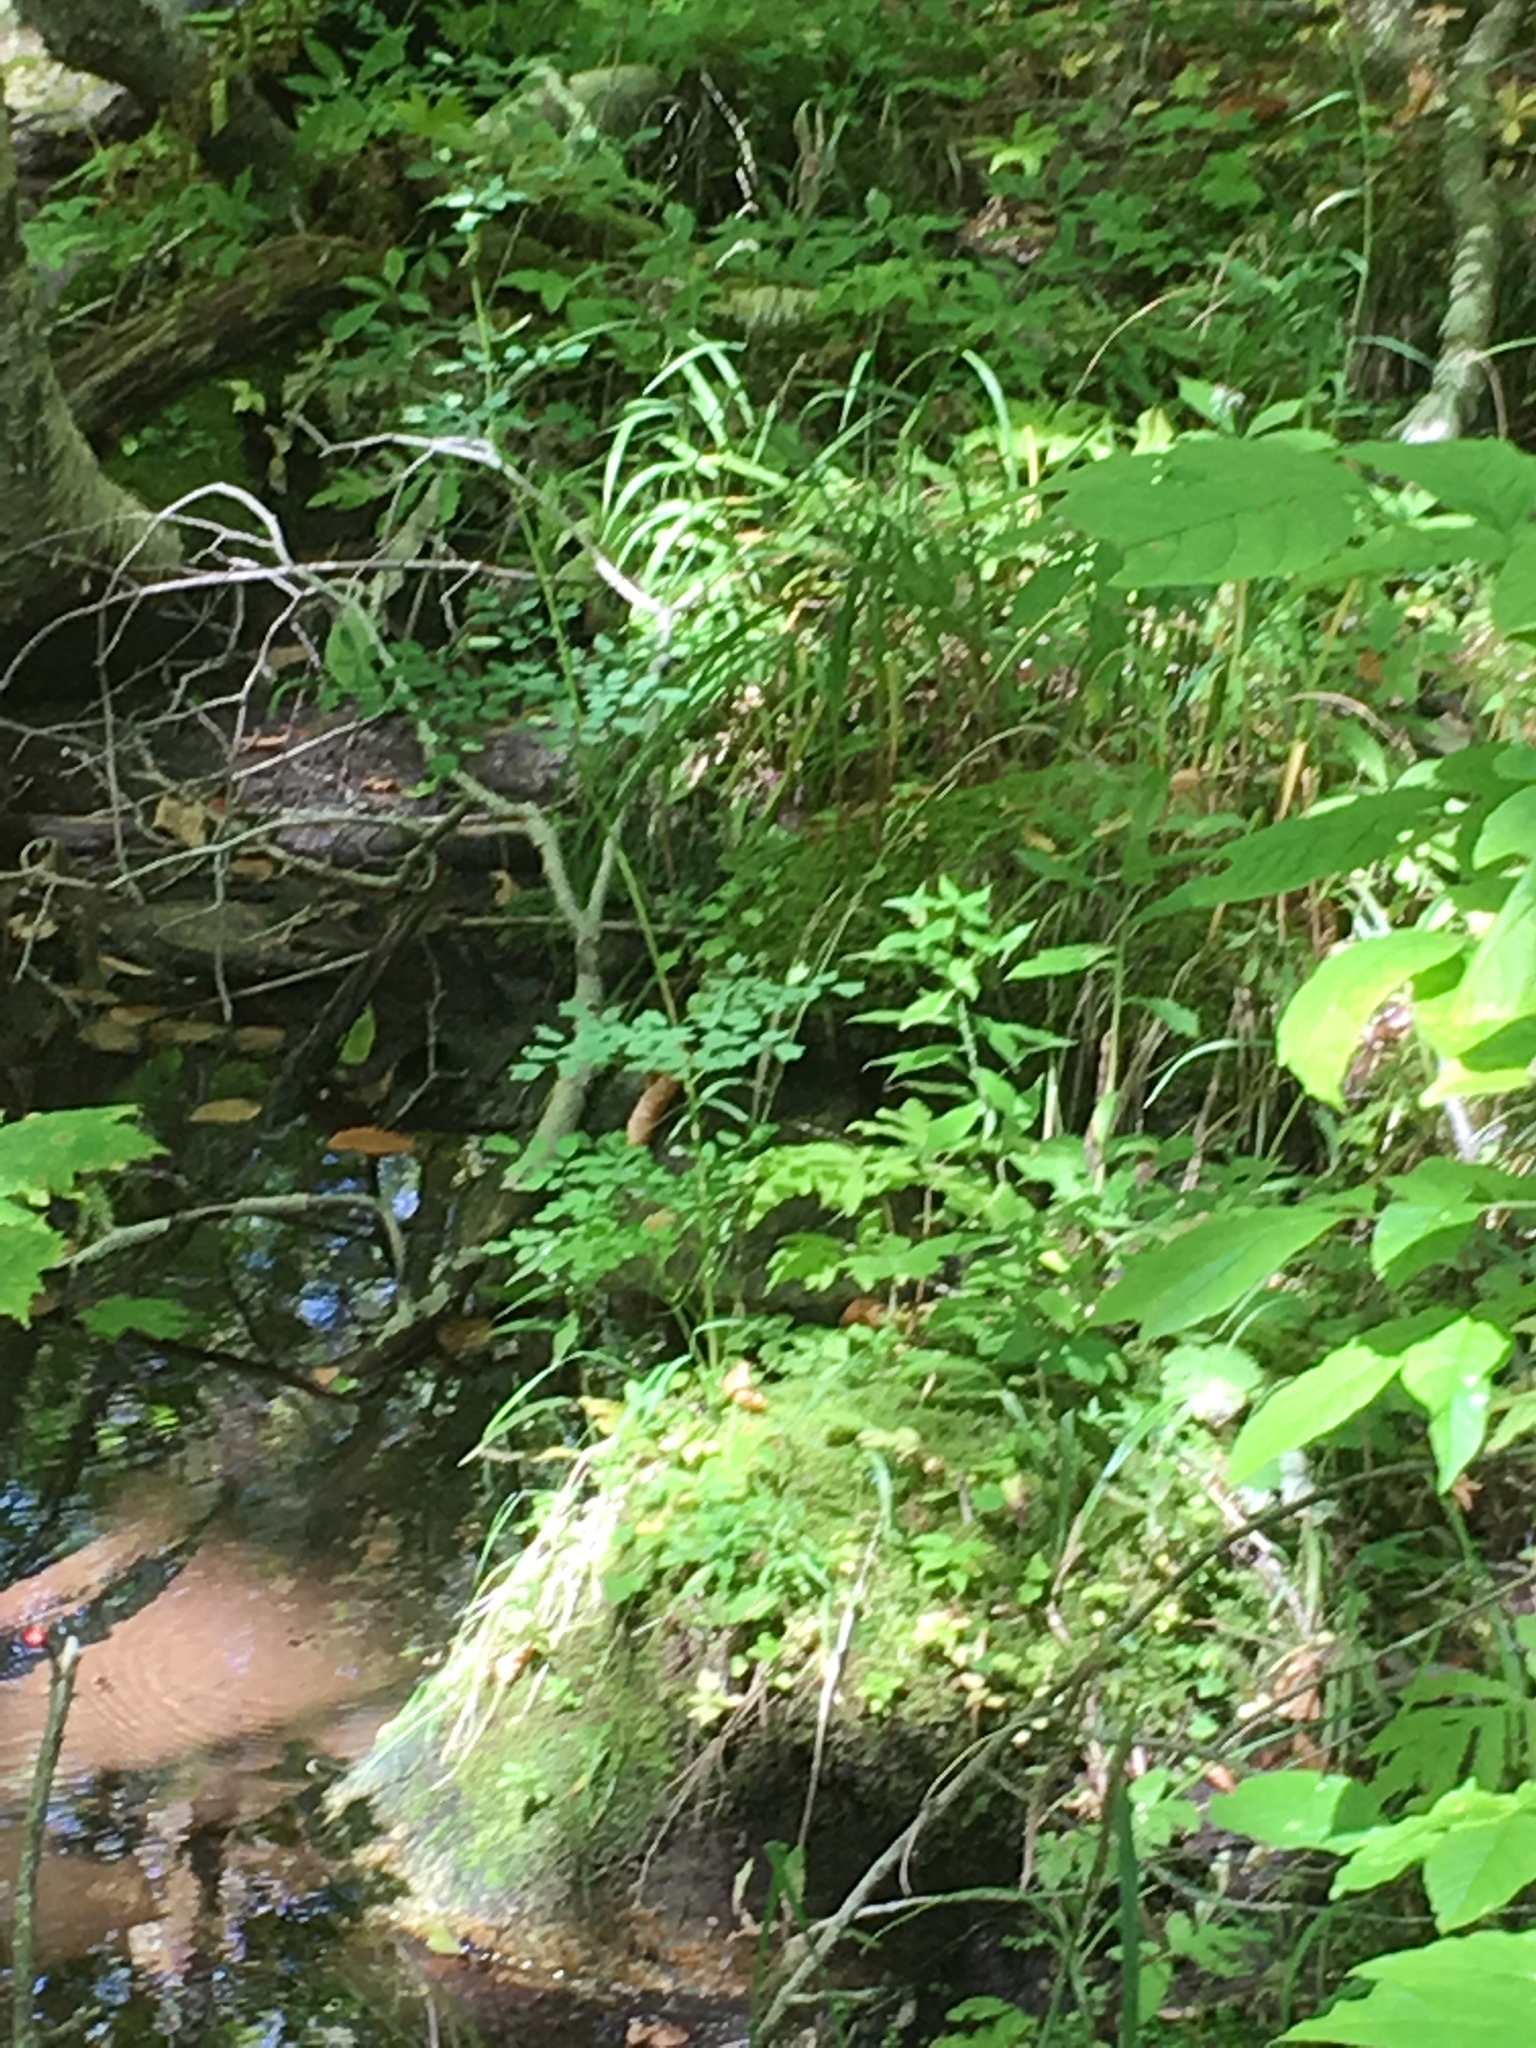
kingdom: Plantae
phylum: Tracheophyta
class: Magnoliopsida
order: Ranunculales
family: Ranunculaceae
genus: Thalictrum
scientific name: Thalictrum pubescens
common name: King-of-the-meadow
